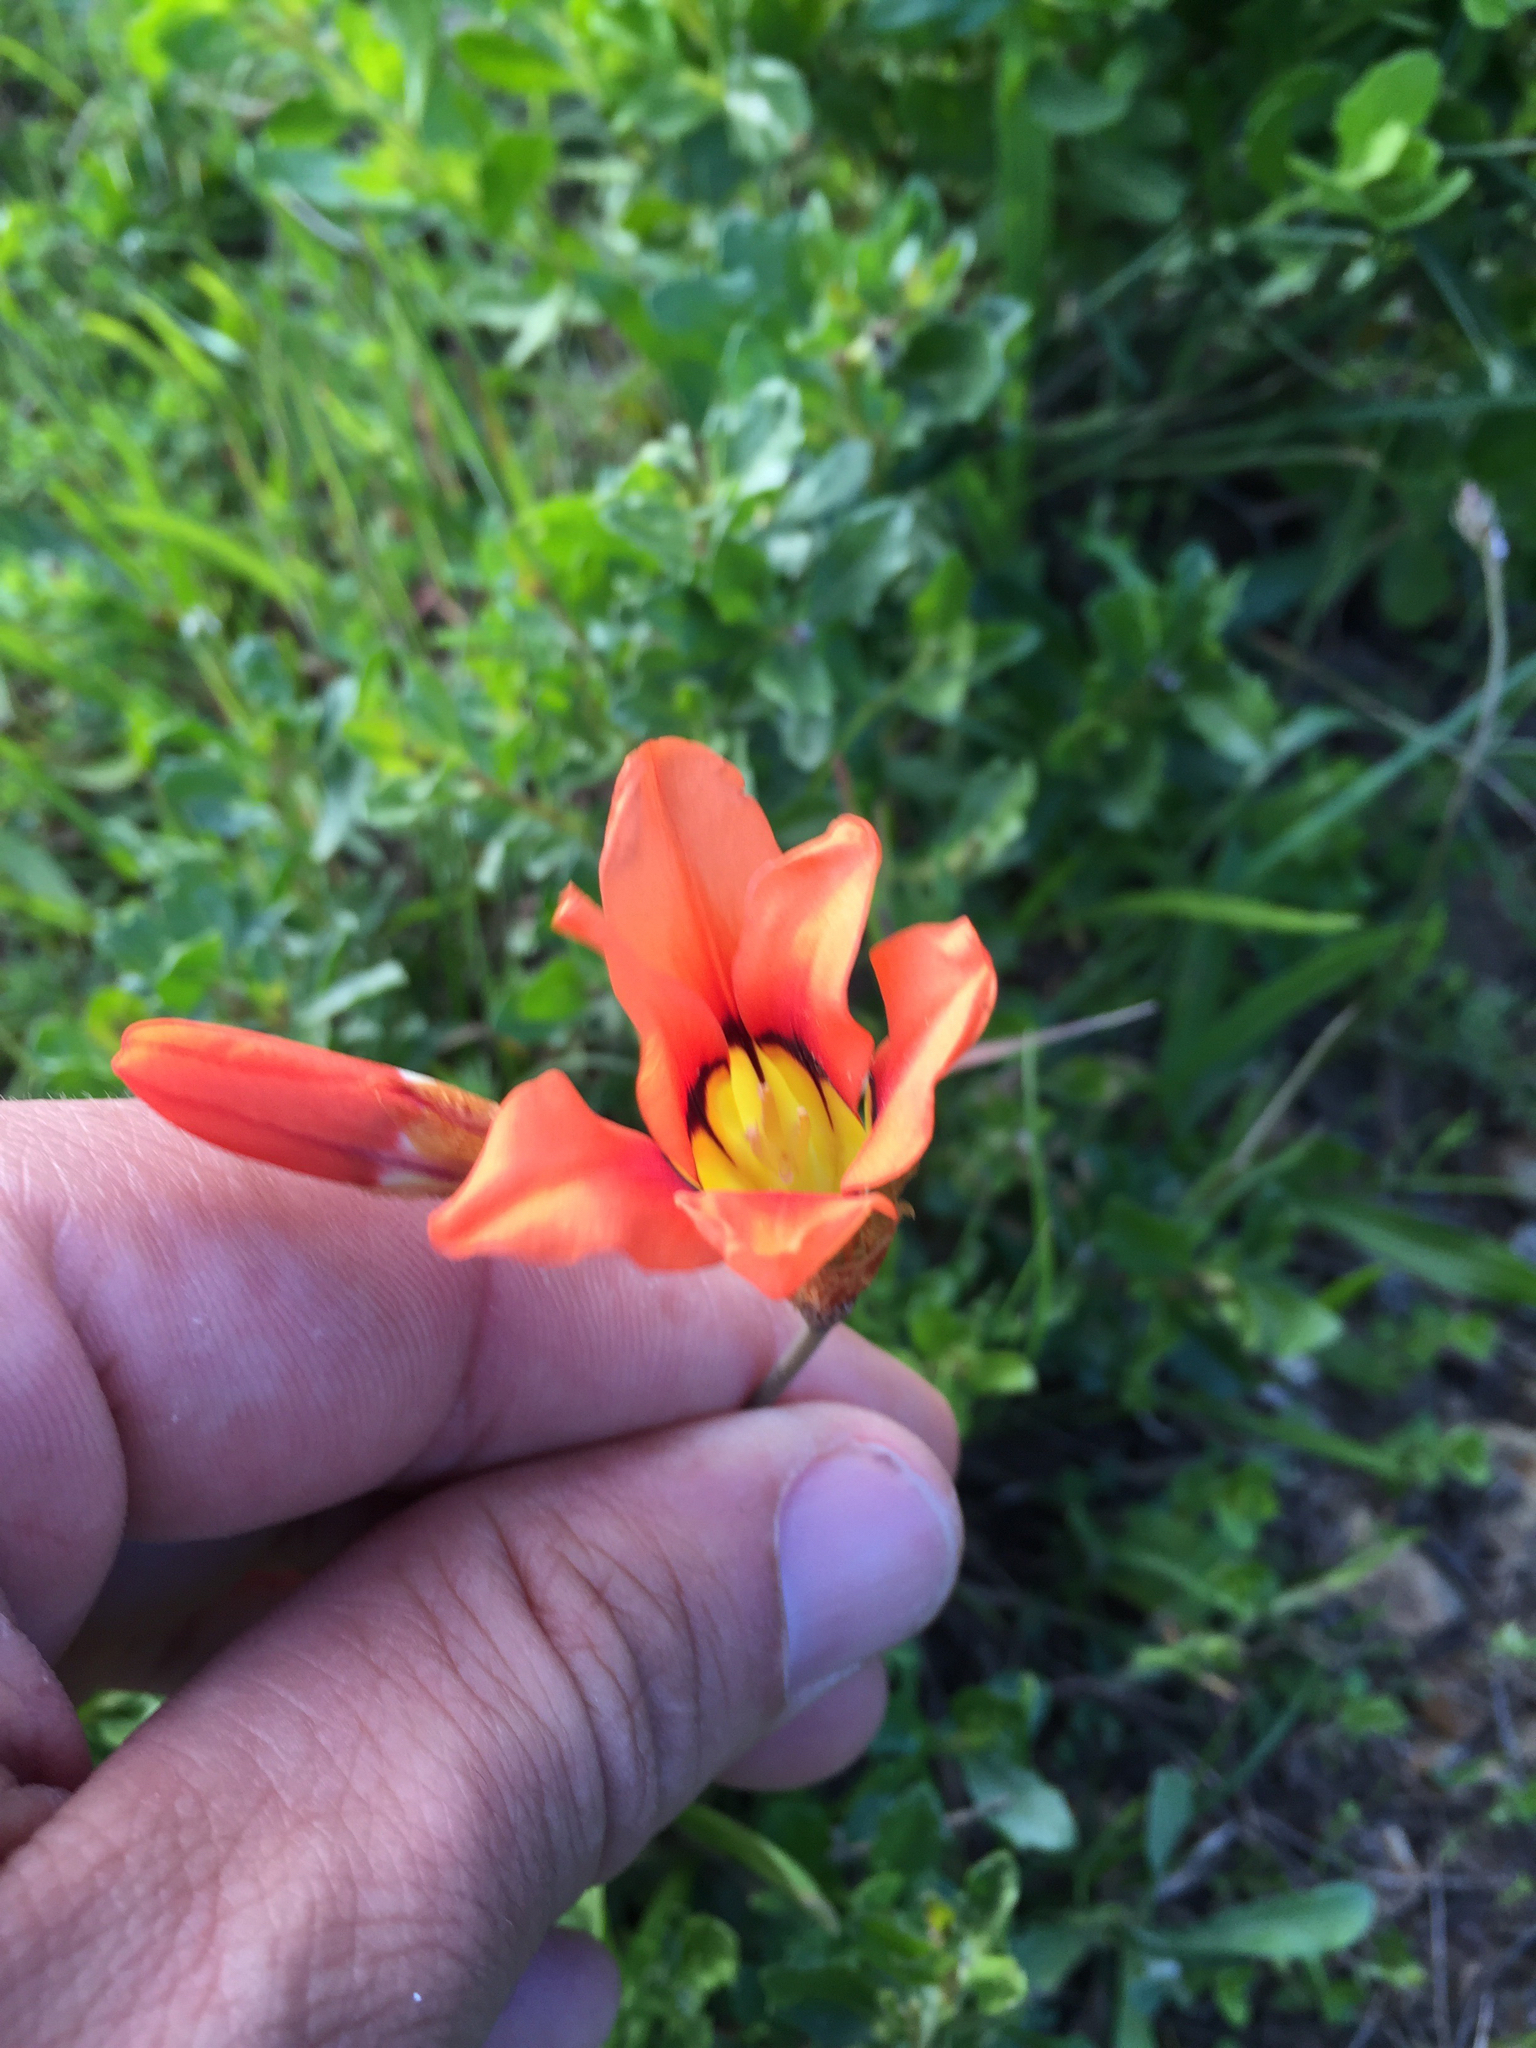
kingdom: Plantae
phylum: Tracheophyta
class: Liliopsida
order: Asparagales
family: Iridaceae
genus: Sparaxis
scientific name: Sparaxis tricolor
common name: Wandflower
